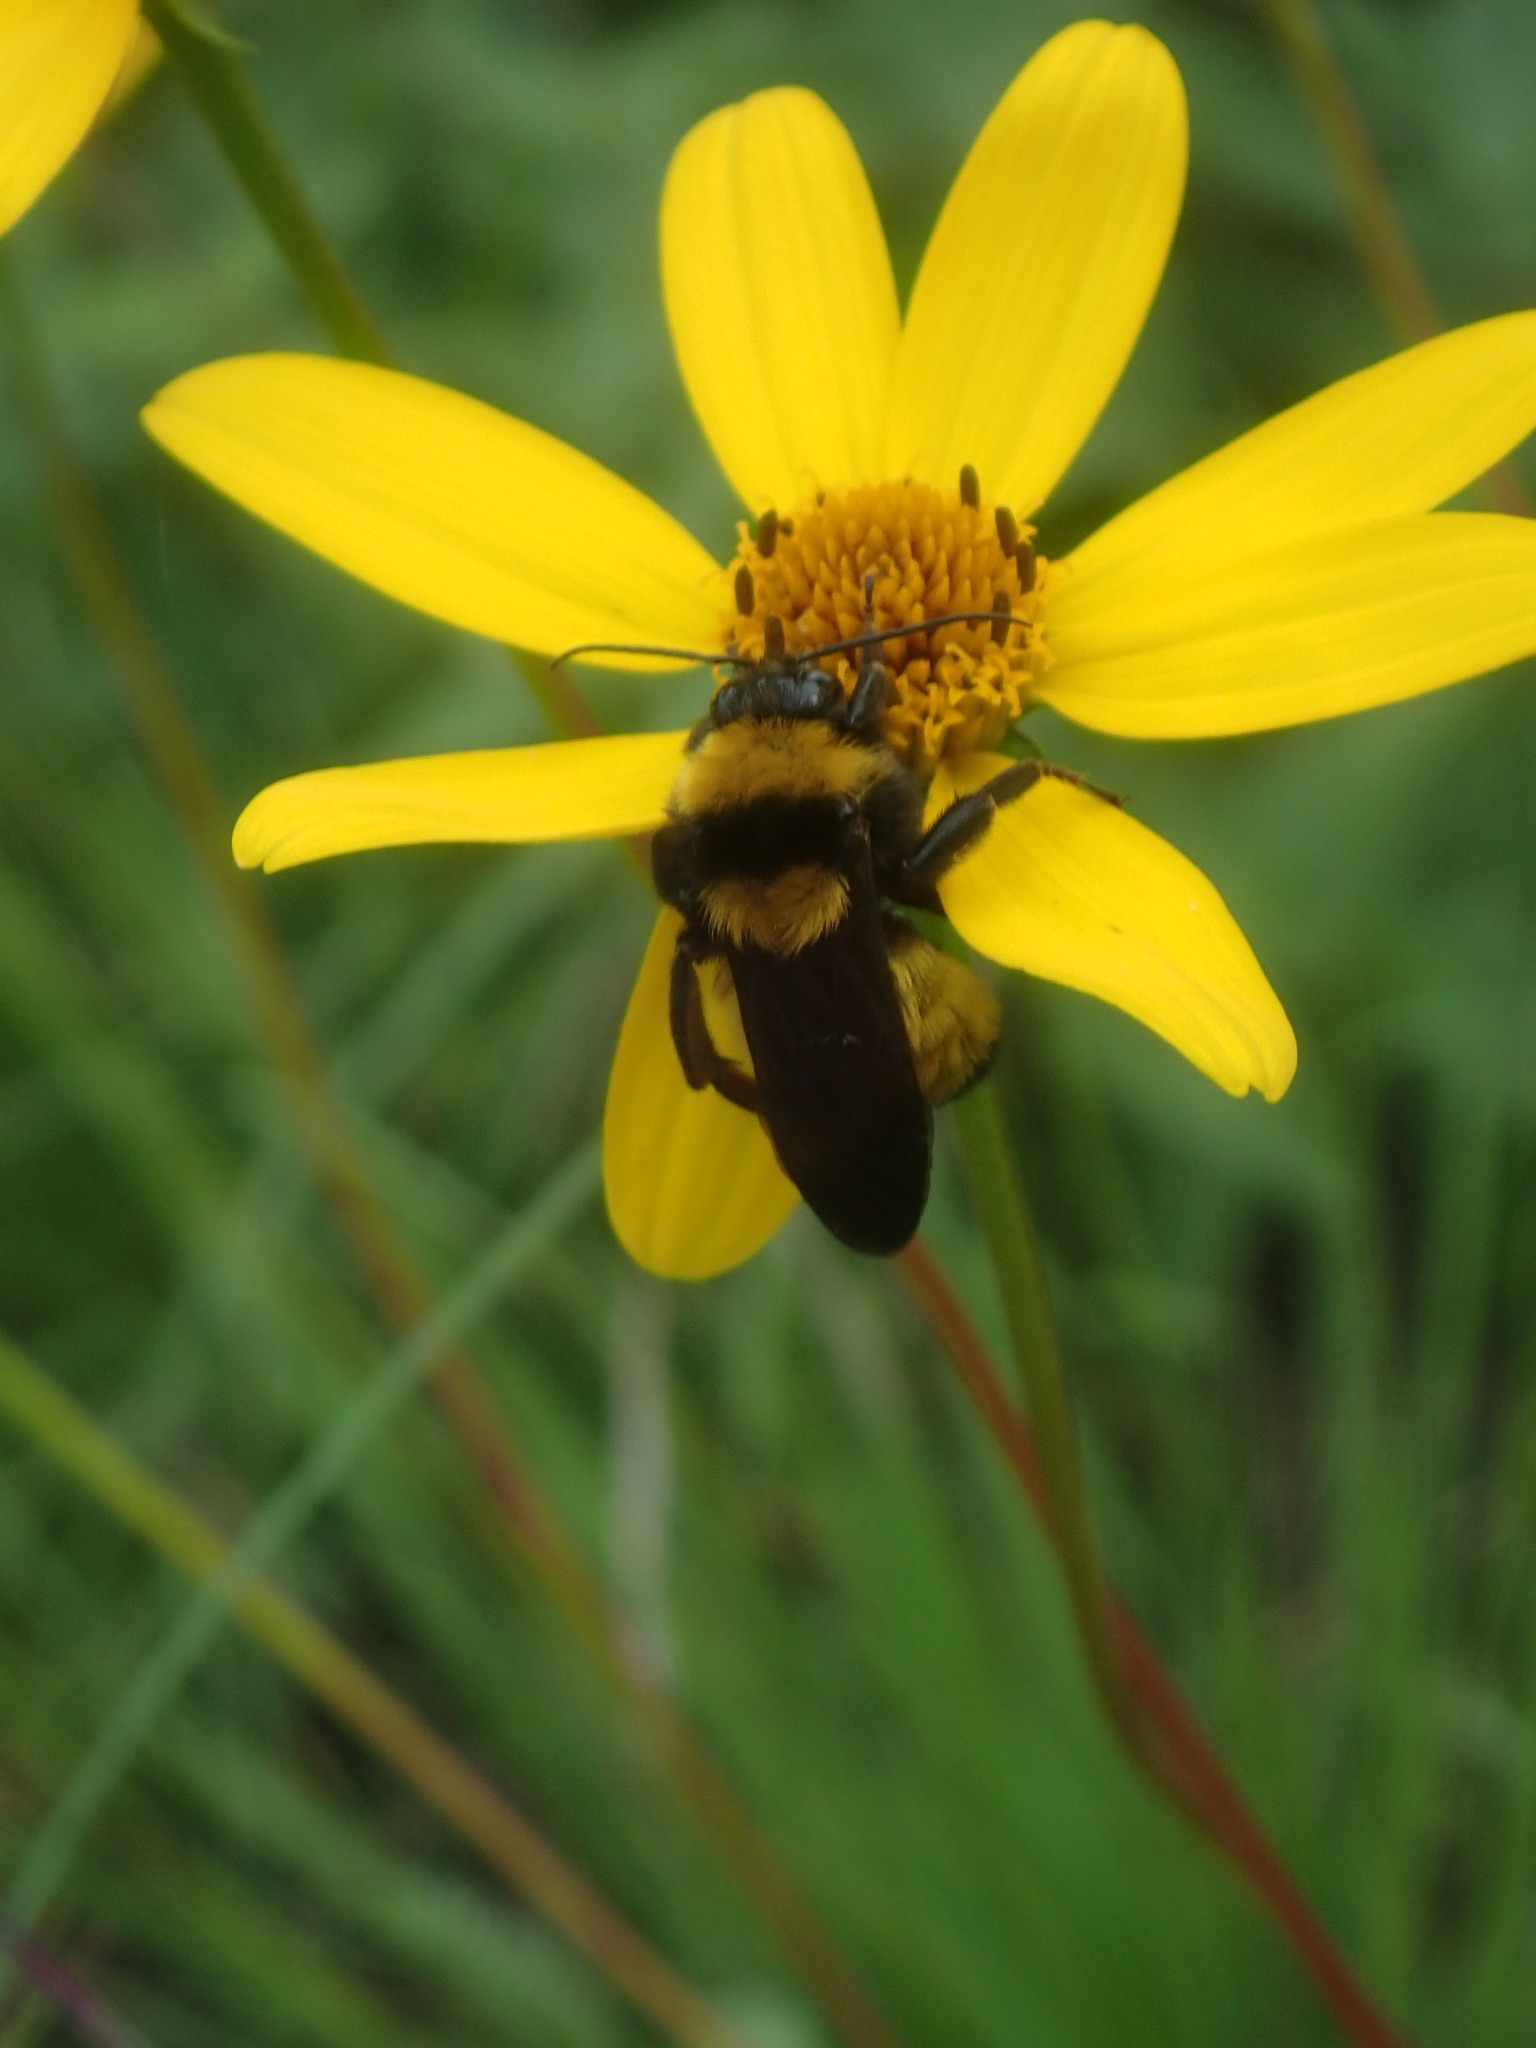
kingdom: Animalia
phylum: Arthropoda
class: Insecta
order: Hymenoptera
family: Apidae
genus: Bombus
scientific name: Bombus sonorus
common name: Sonoran bumble bee
